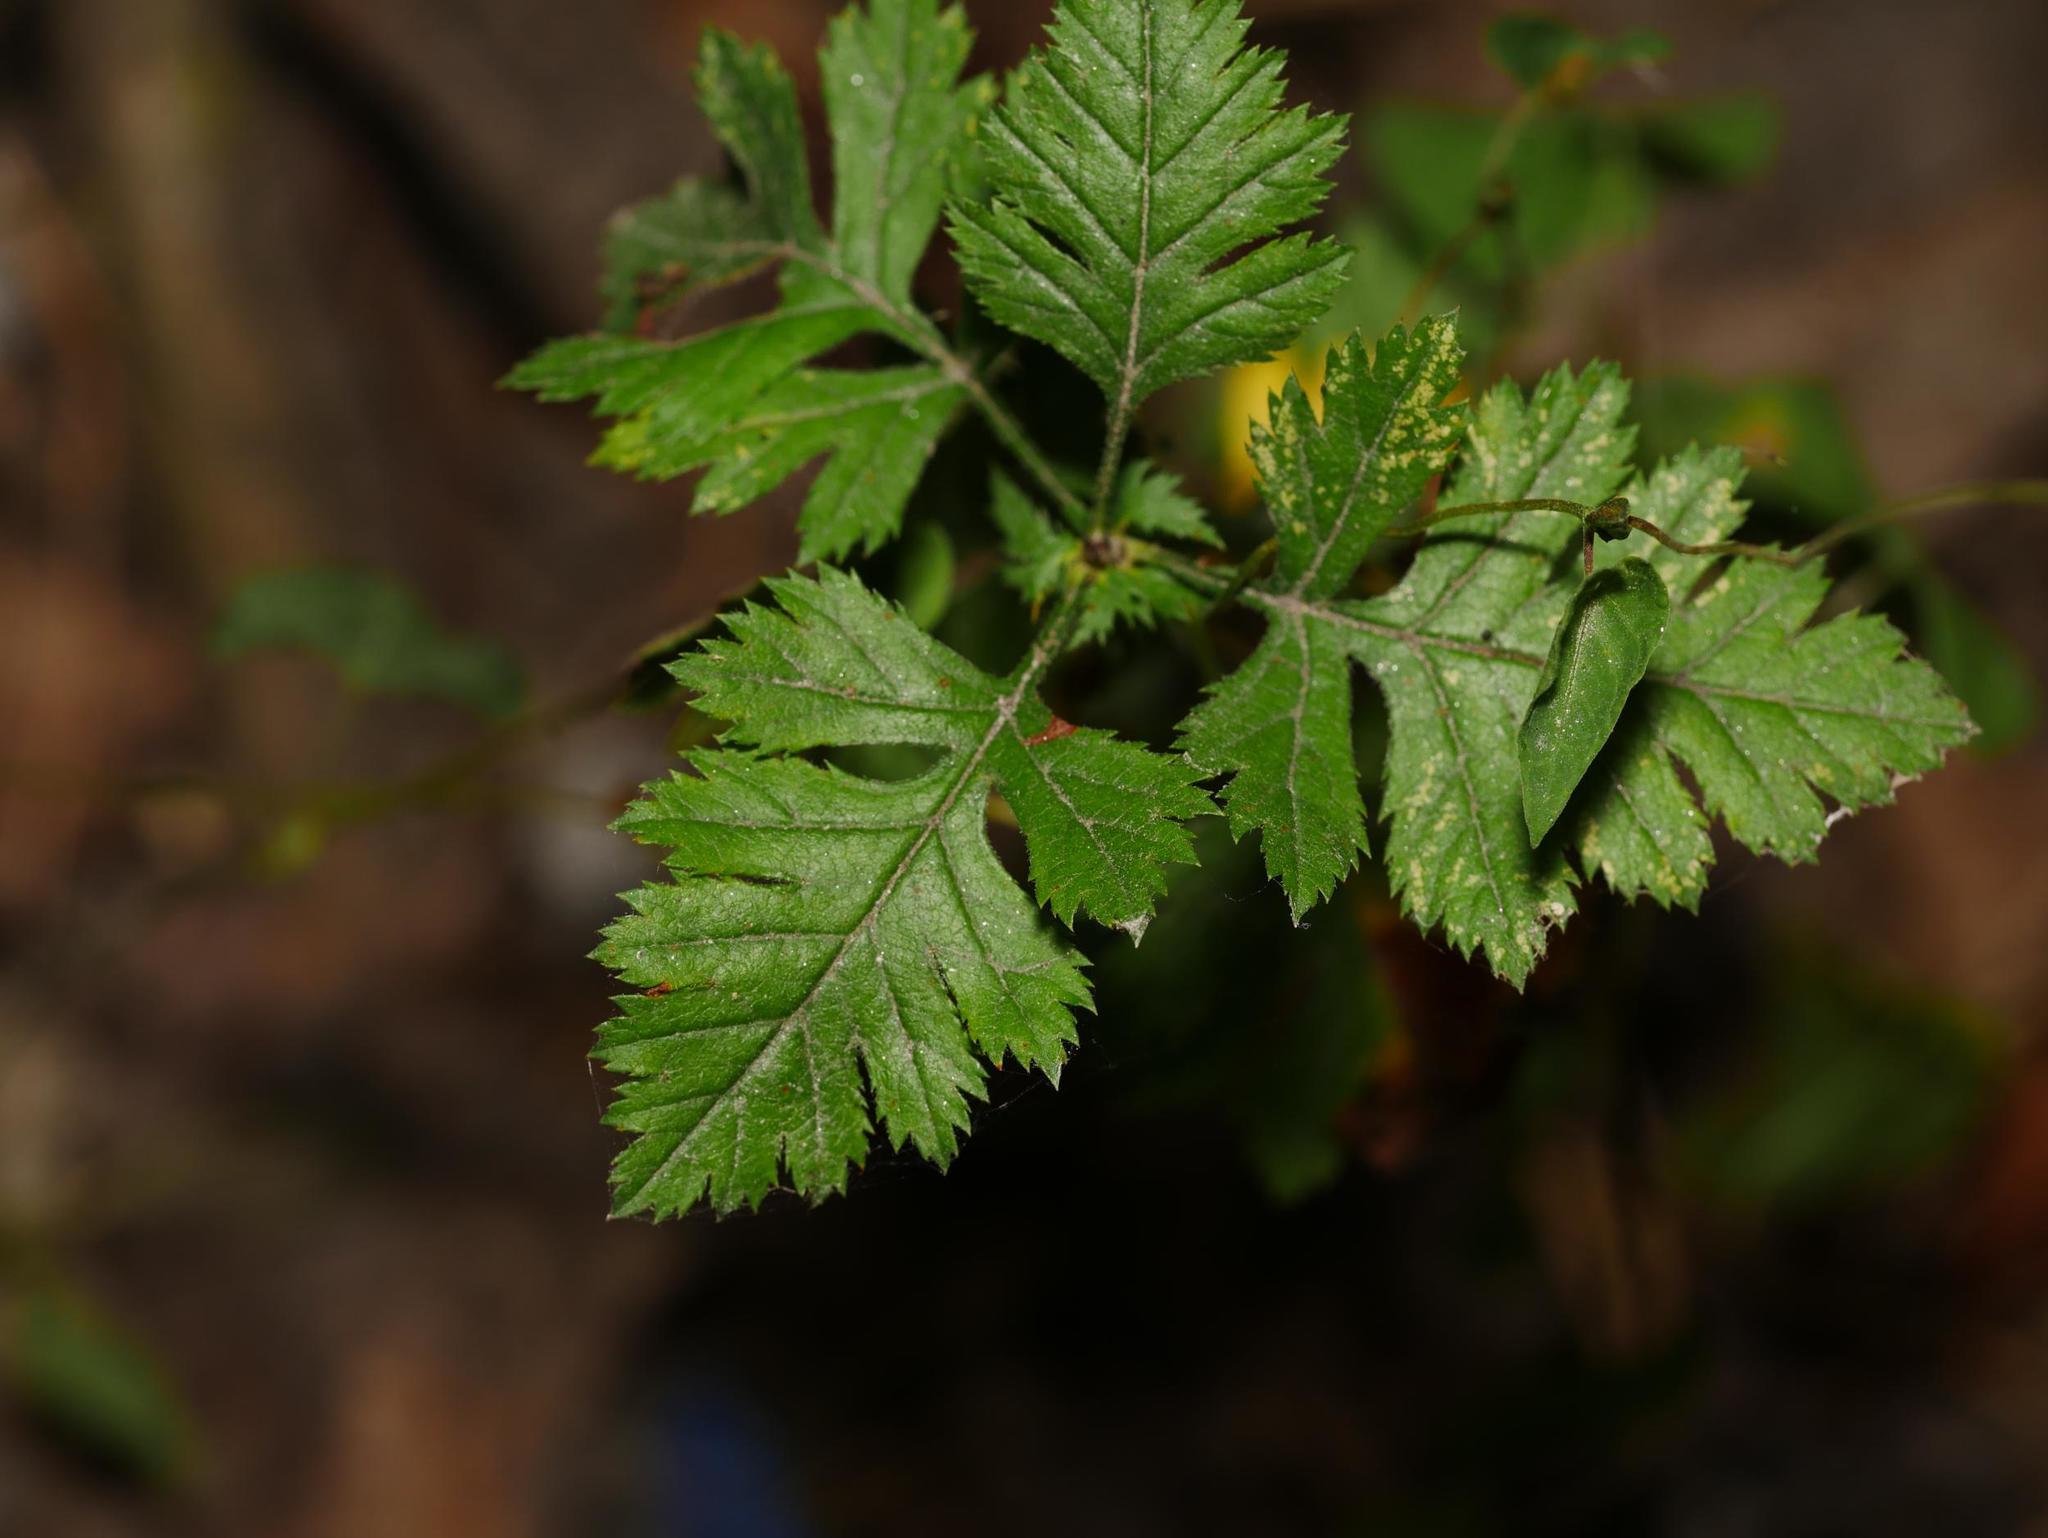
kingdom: Plantae
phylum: Tracheophyta
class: Magnoliopsida
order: Rosales
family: Rosaceae
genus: Crataegus
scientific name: Crataegus monogyna
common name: Hawthorn
